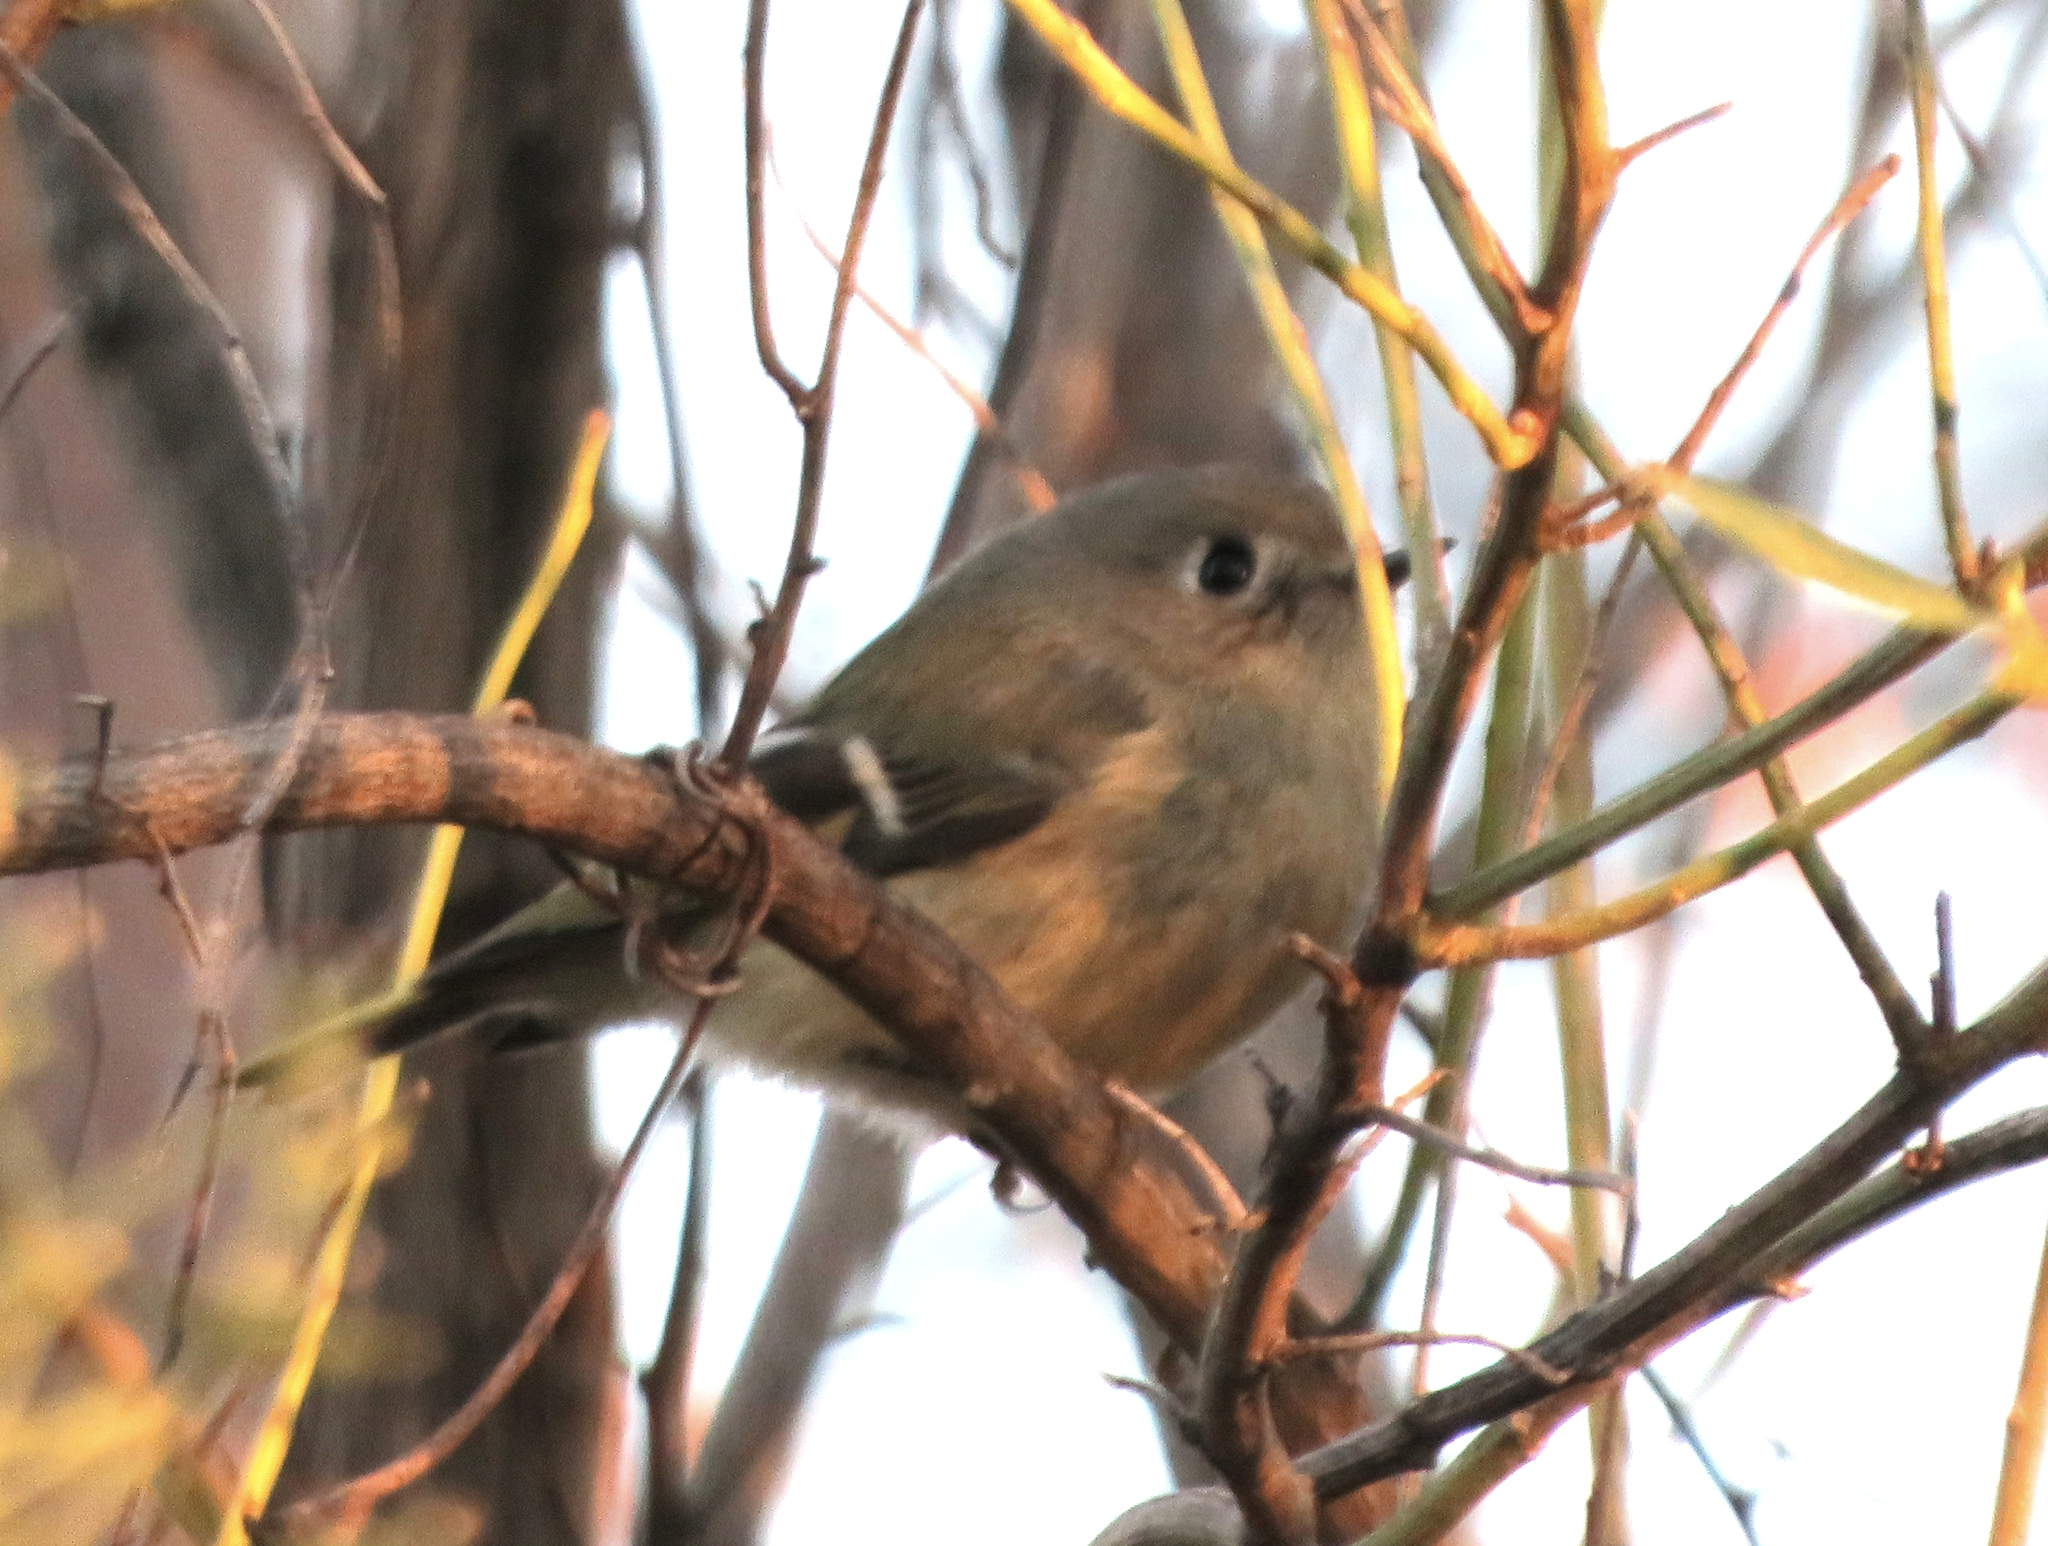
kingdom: Animalia
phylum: Chordata
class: Aves
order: Passeriformes
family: Regulidae
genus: Regulus
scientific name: Regulus calendula
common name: Ruby-crowned kinglet
